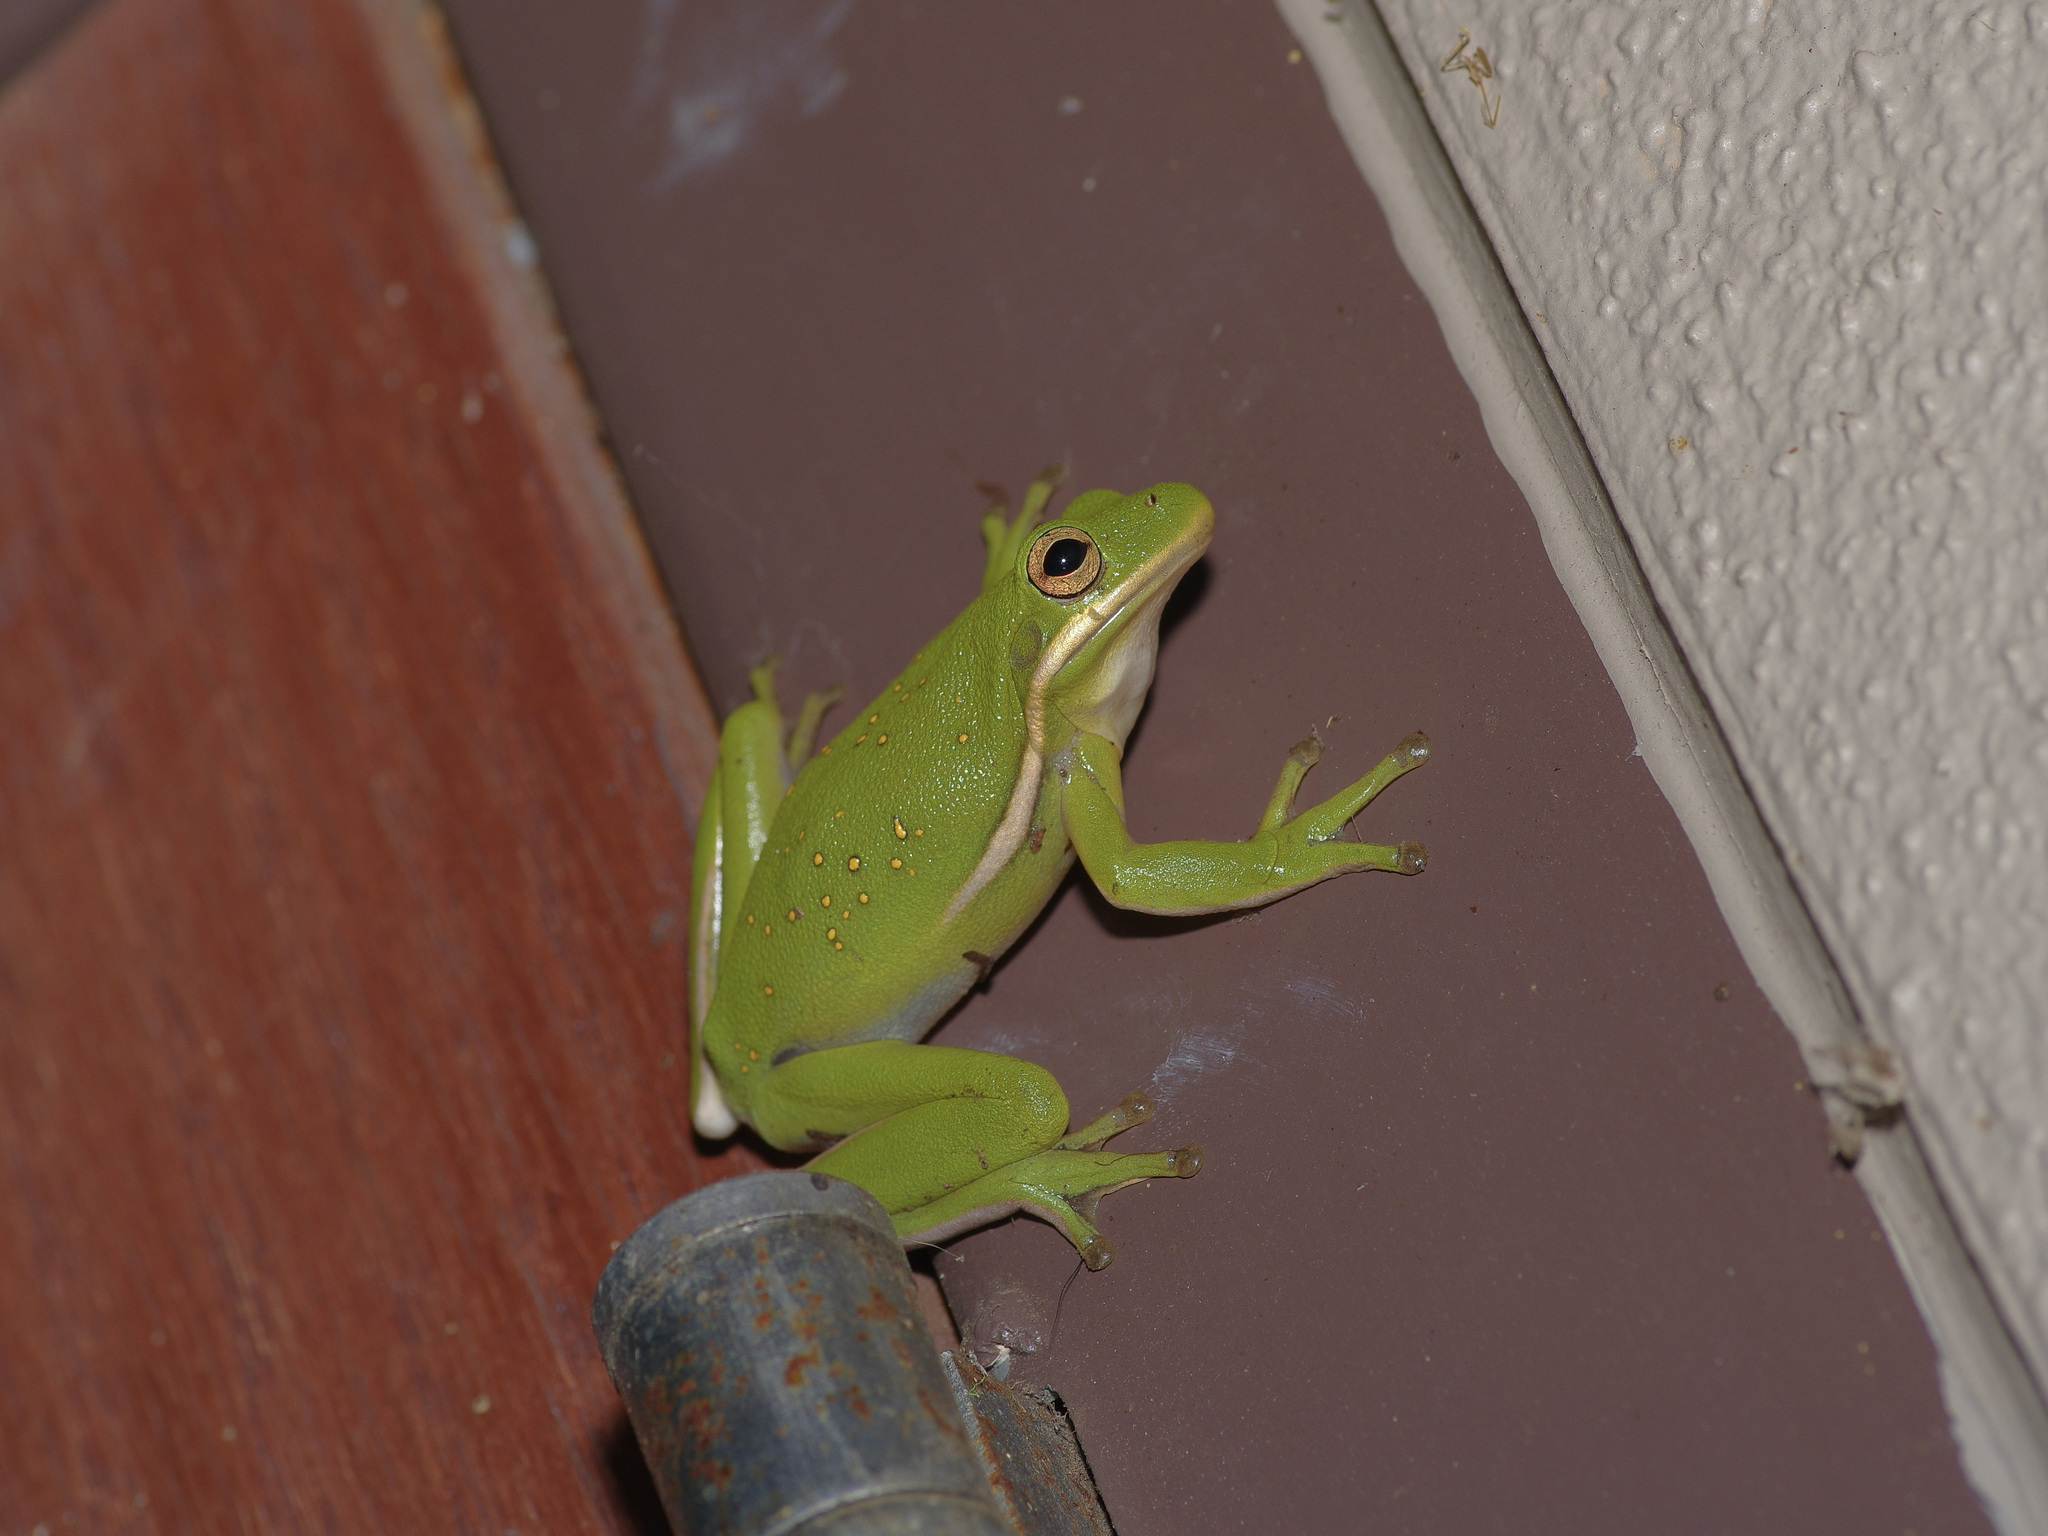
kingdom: Animalia
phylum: Chordata
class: Amphibia
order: Anura
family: Hylidae
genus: Dryophytes
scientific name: Dryophytes cinereus
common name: Green treefrog
